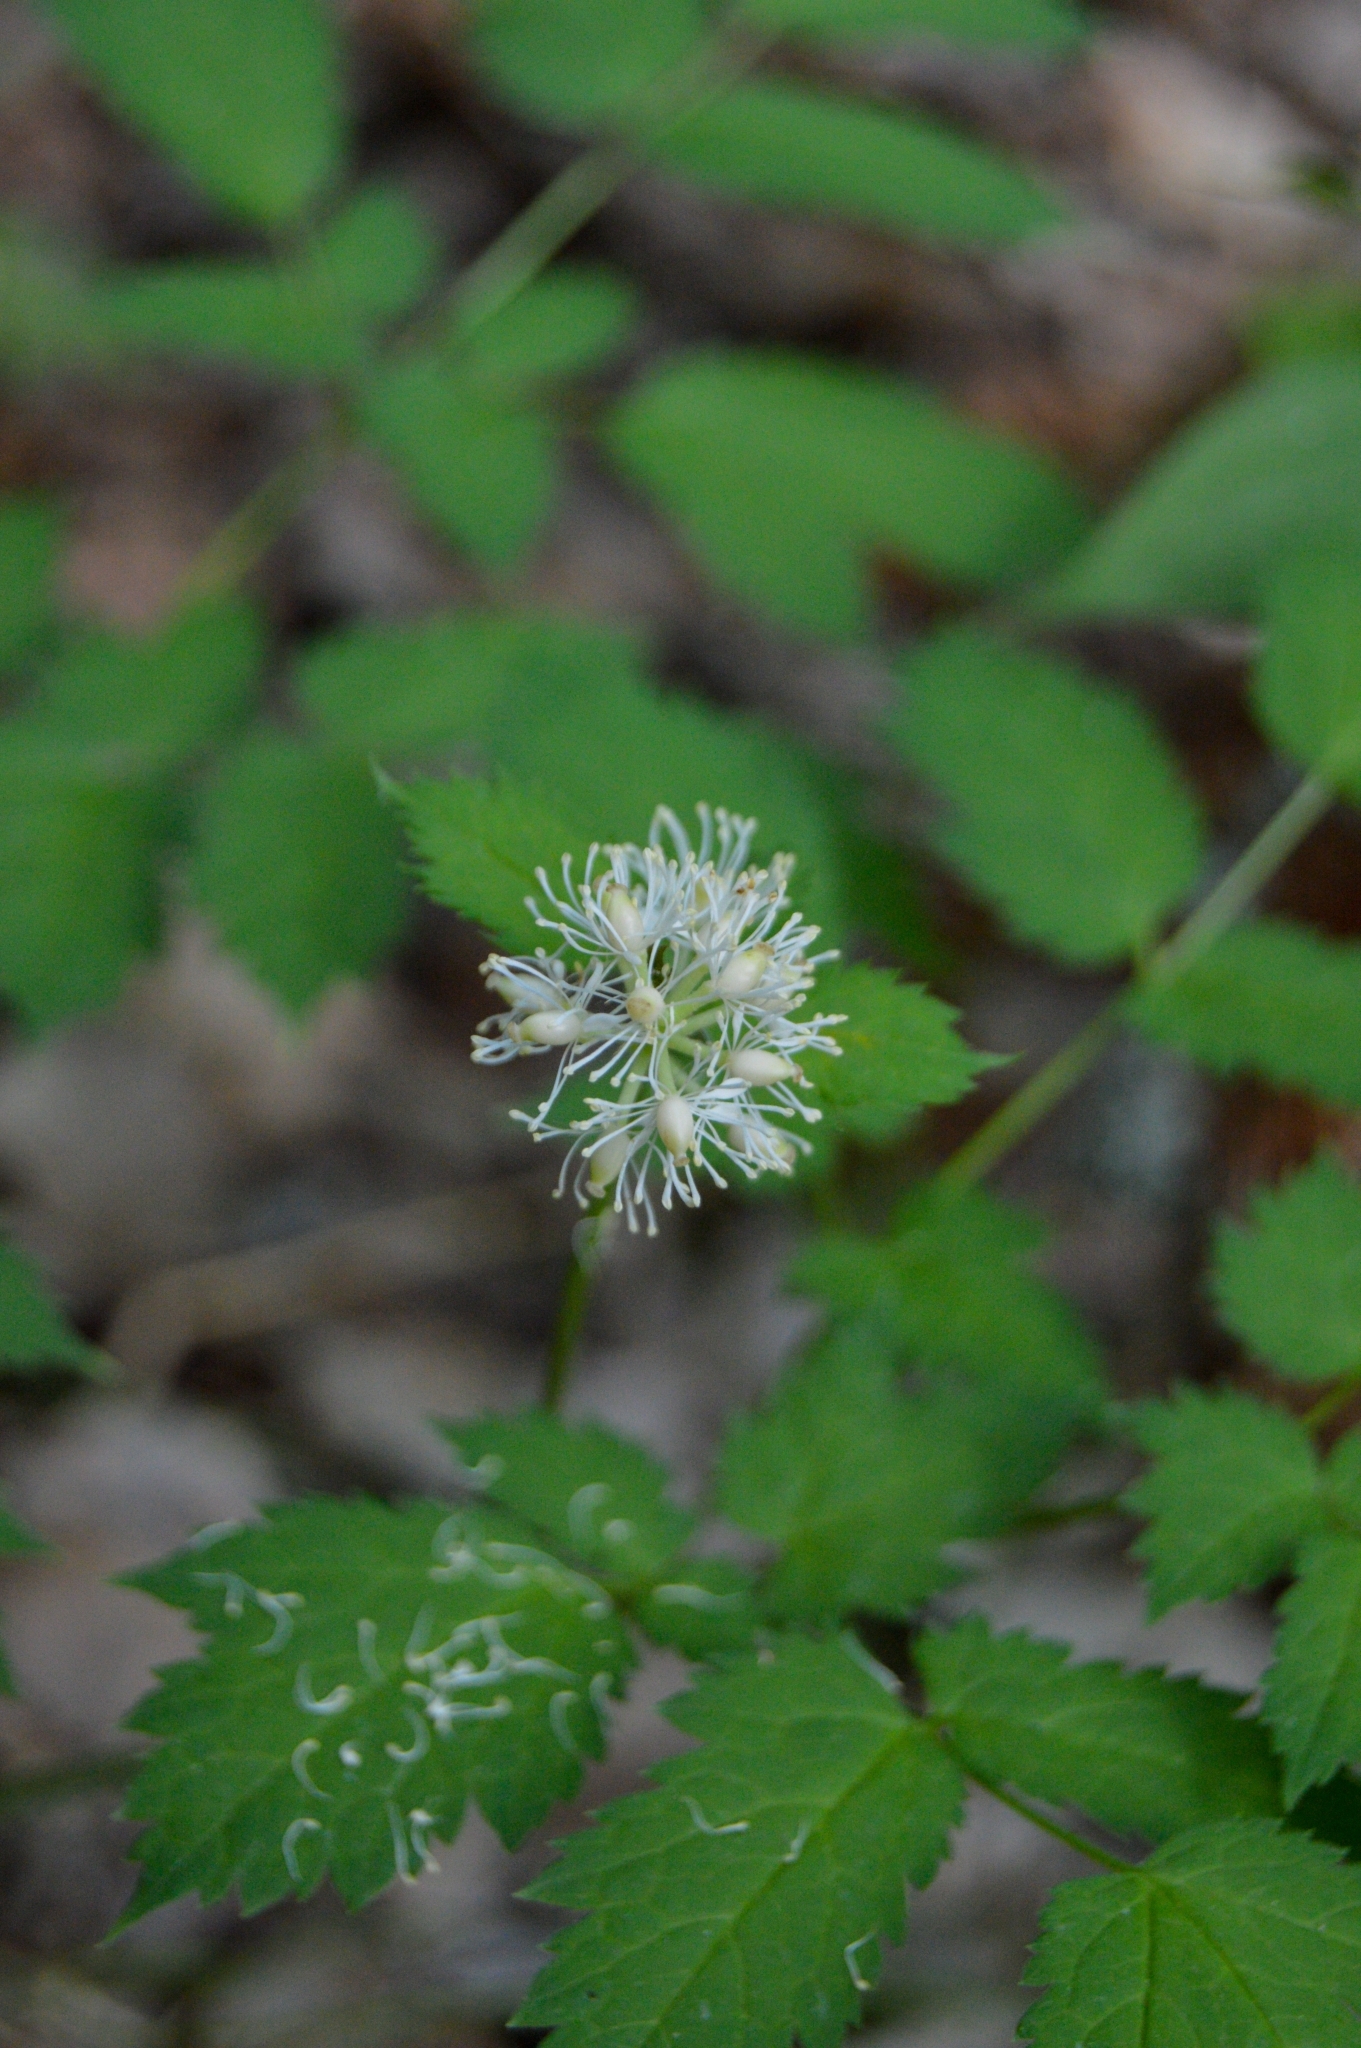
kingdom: Plantae
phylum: Tracheophyta
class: Magnoliopsida
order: Ranunculales
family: Ranunculaceae
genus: Actaea
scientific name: Actaea spicata
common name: Baneberry
